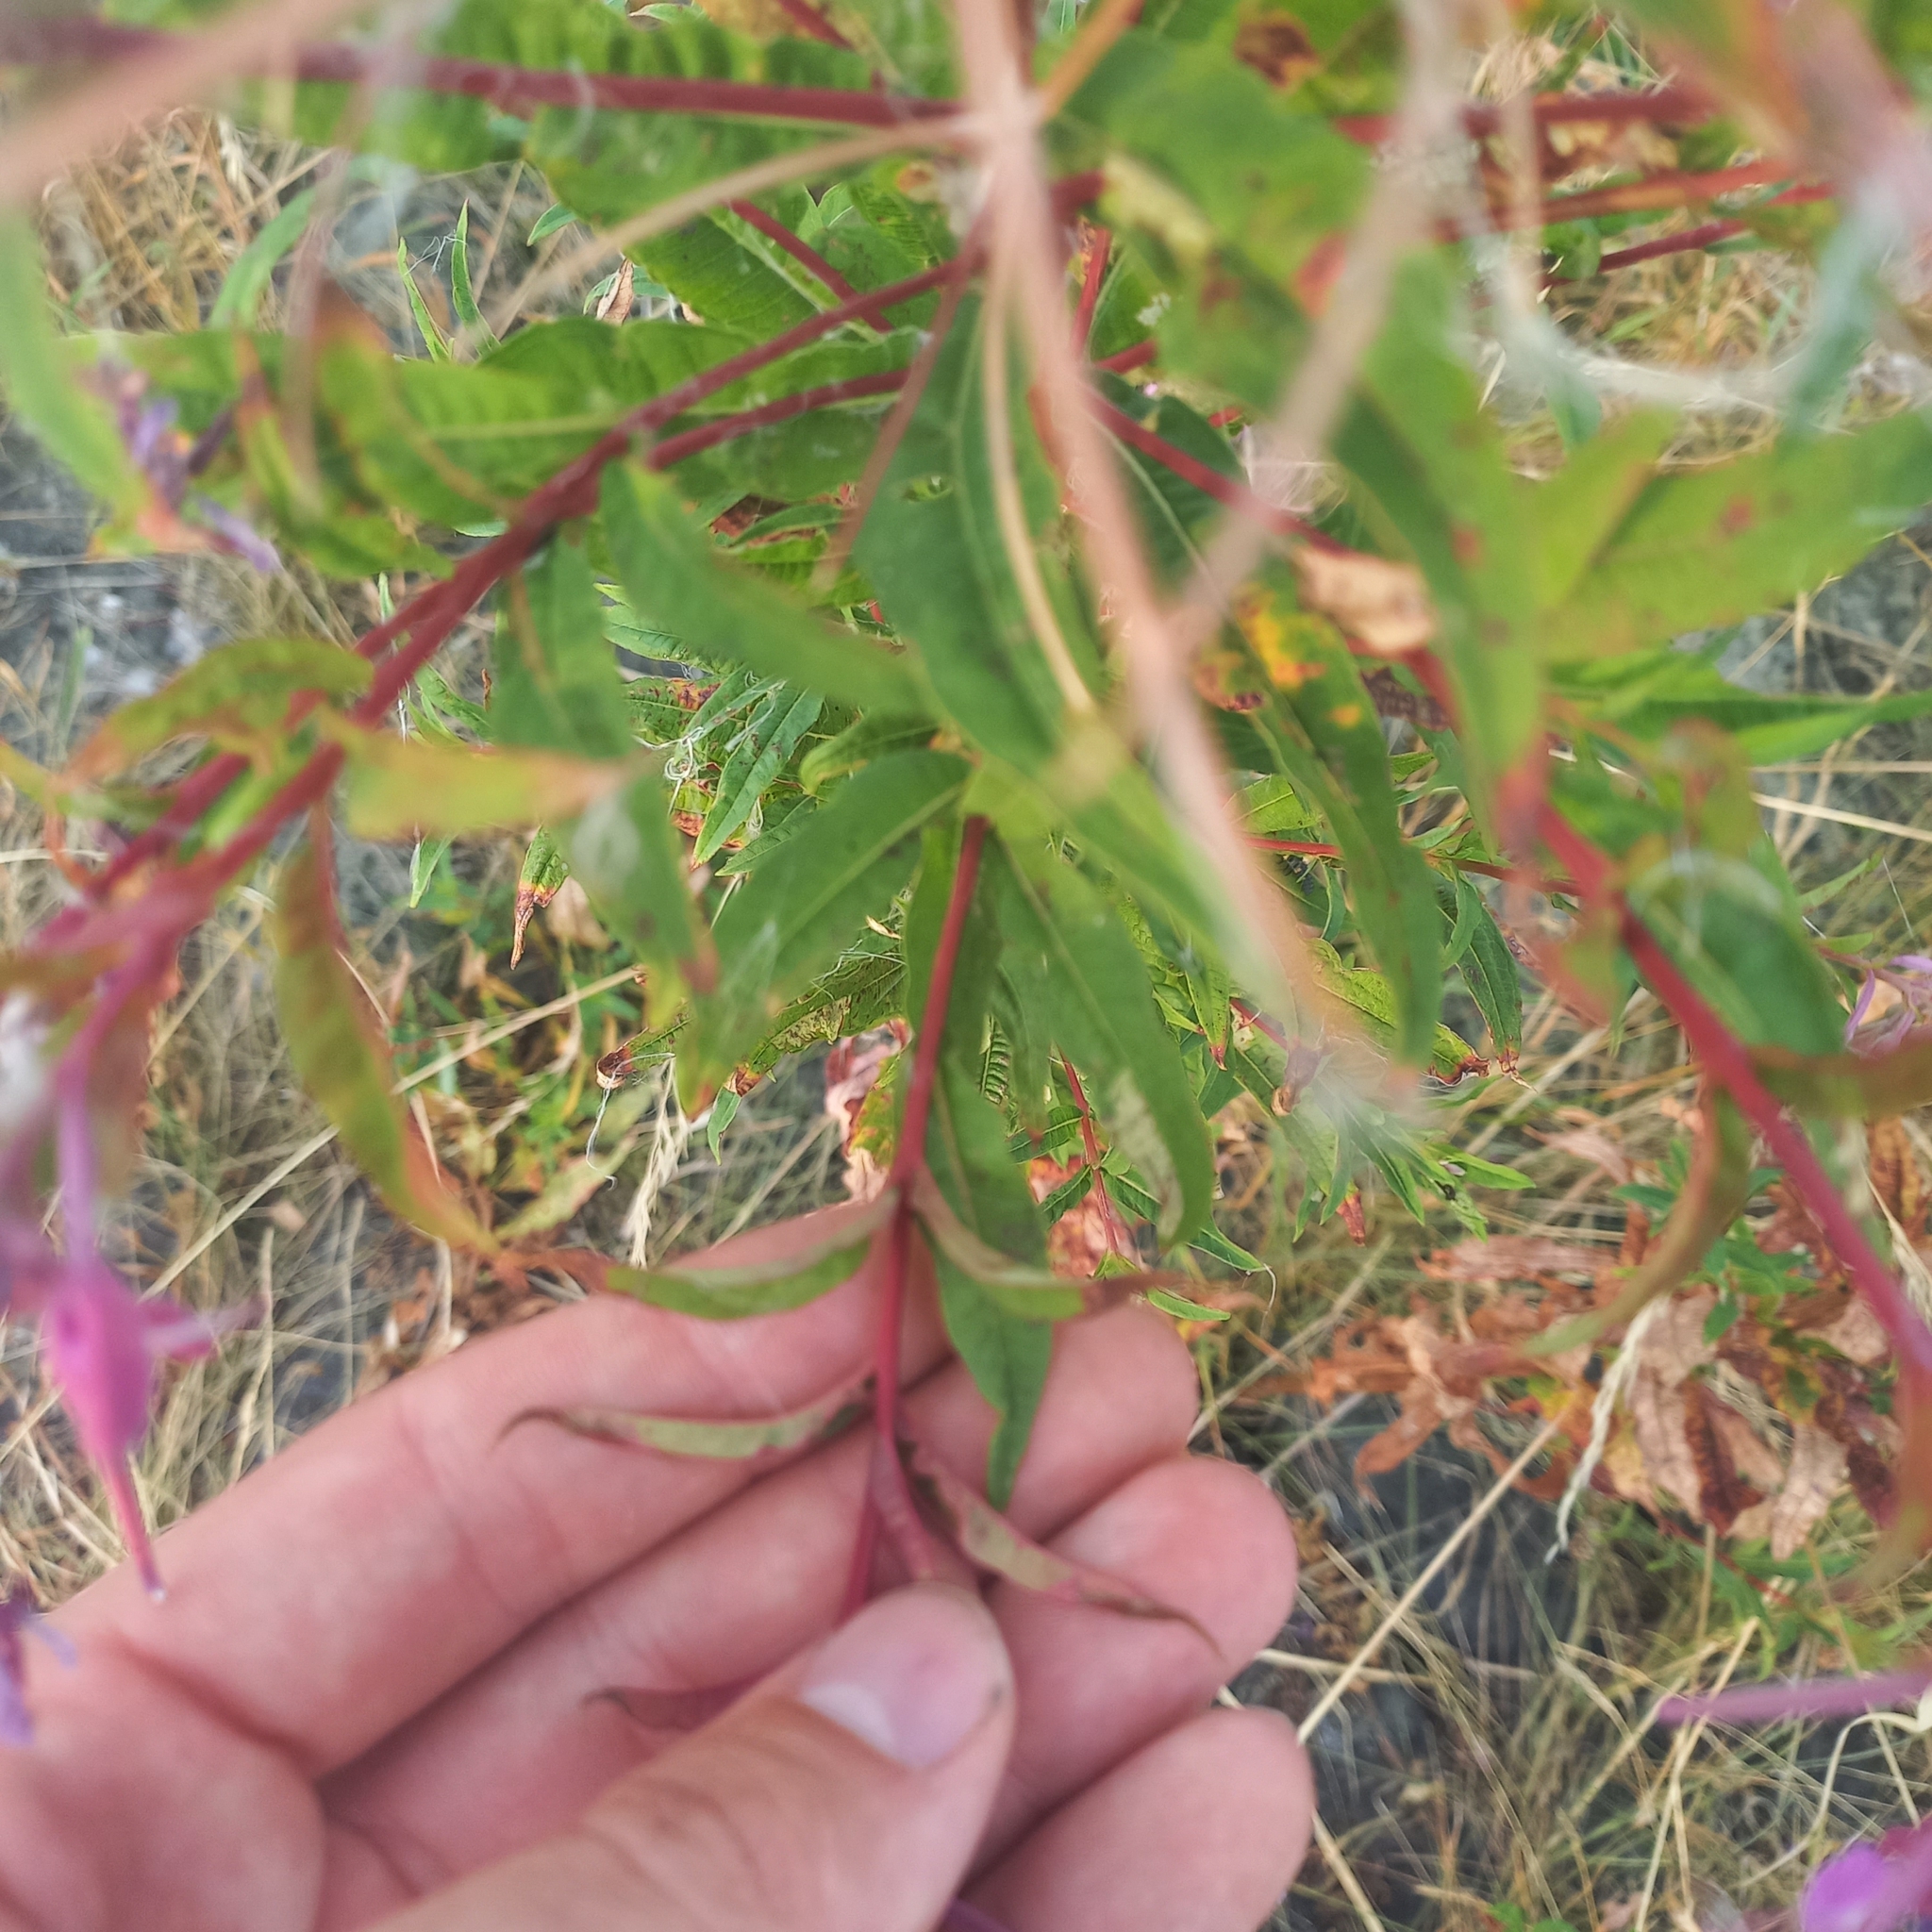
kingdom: Plantae
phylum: Tracheophyta
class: Magnoliopsida
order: Myrtales
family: Onagraceae
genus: Chamaenerion
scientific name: Chamaenerion angustifolium
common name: Fireweed
